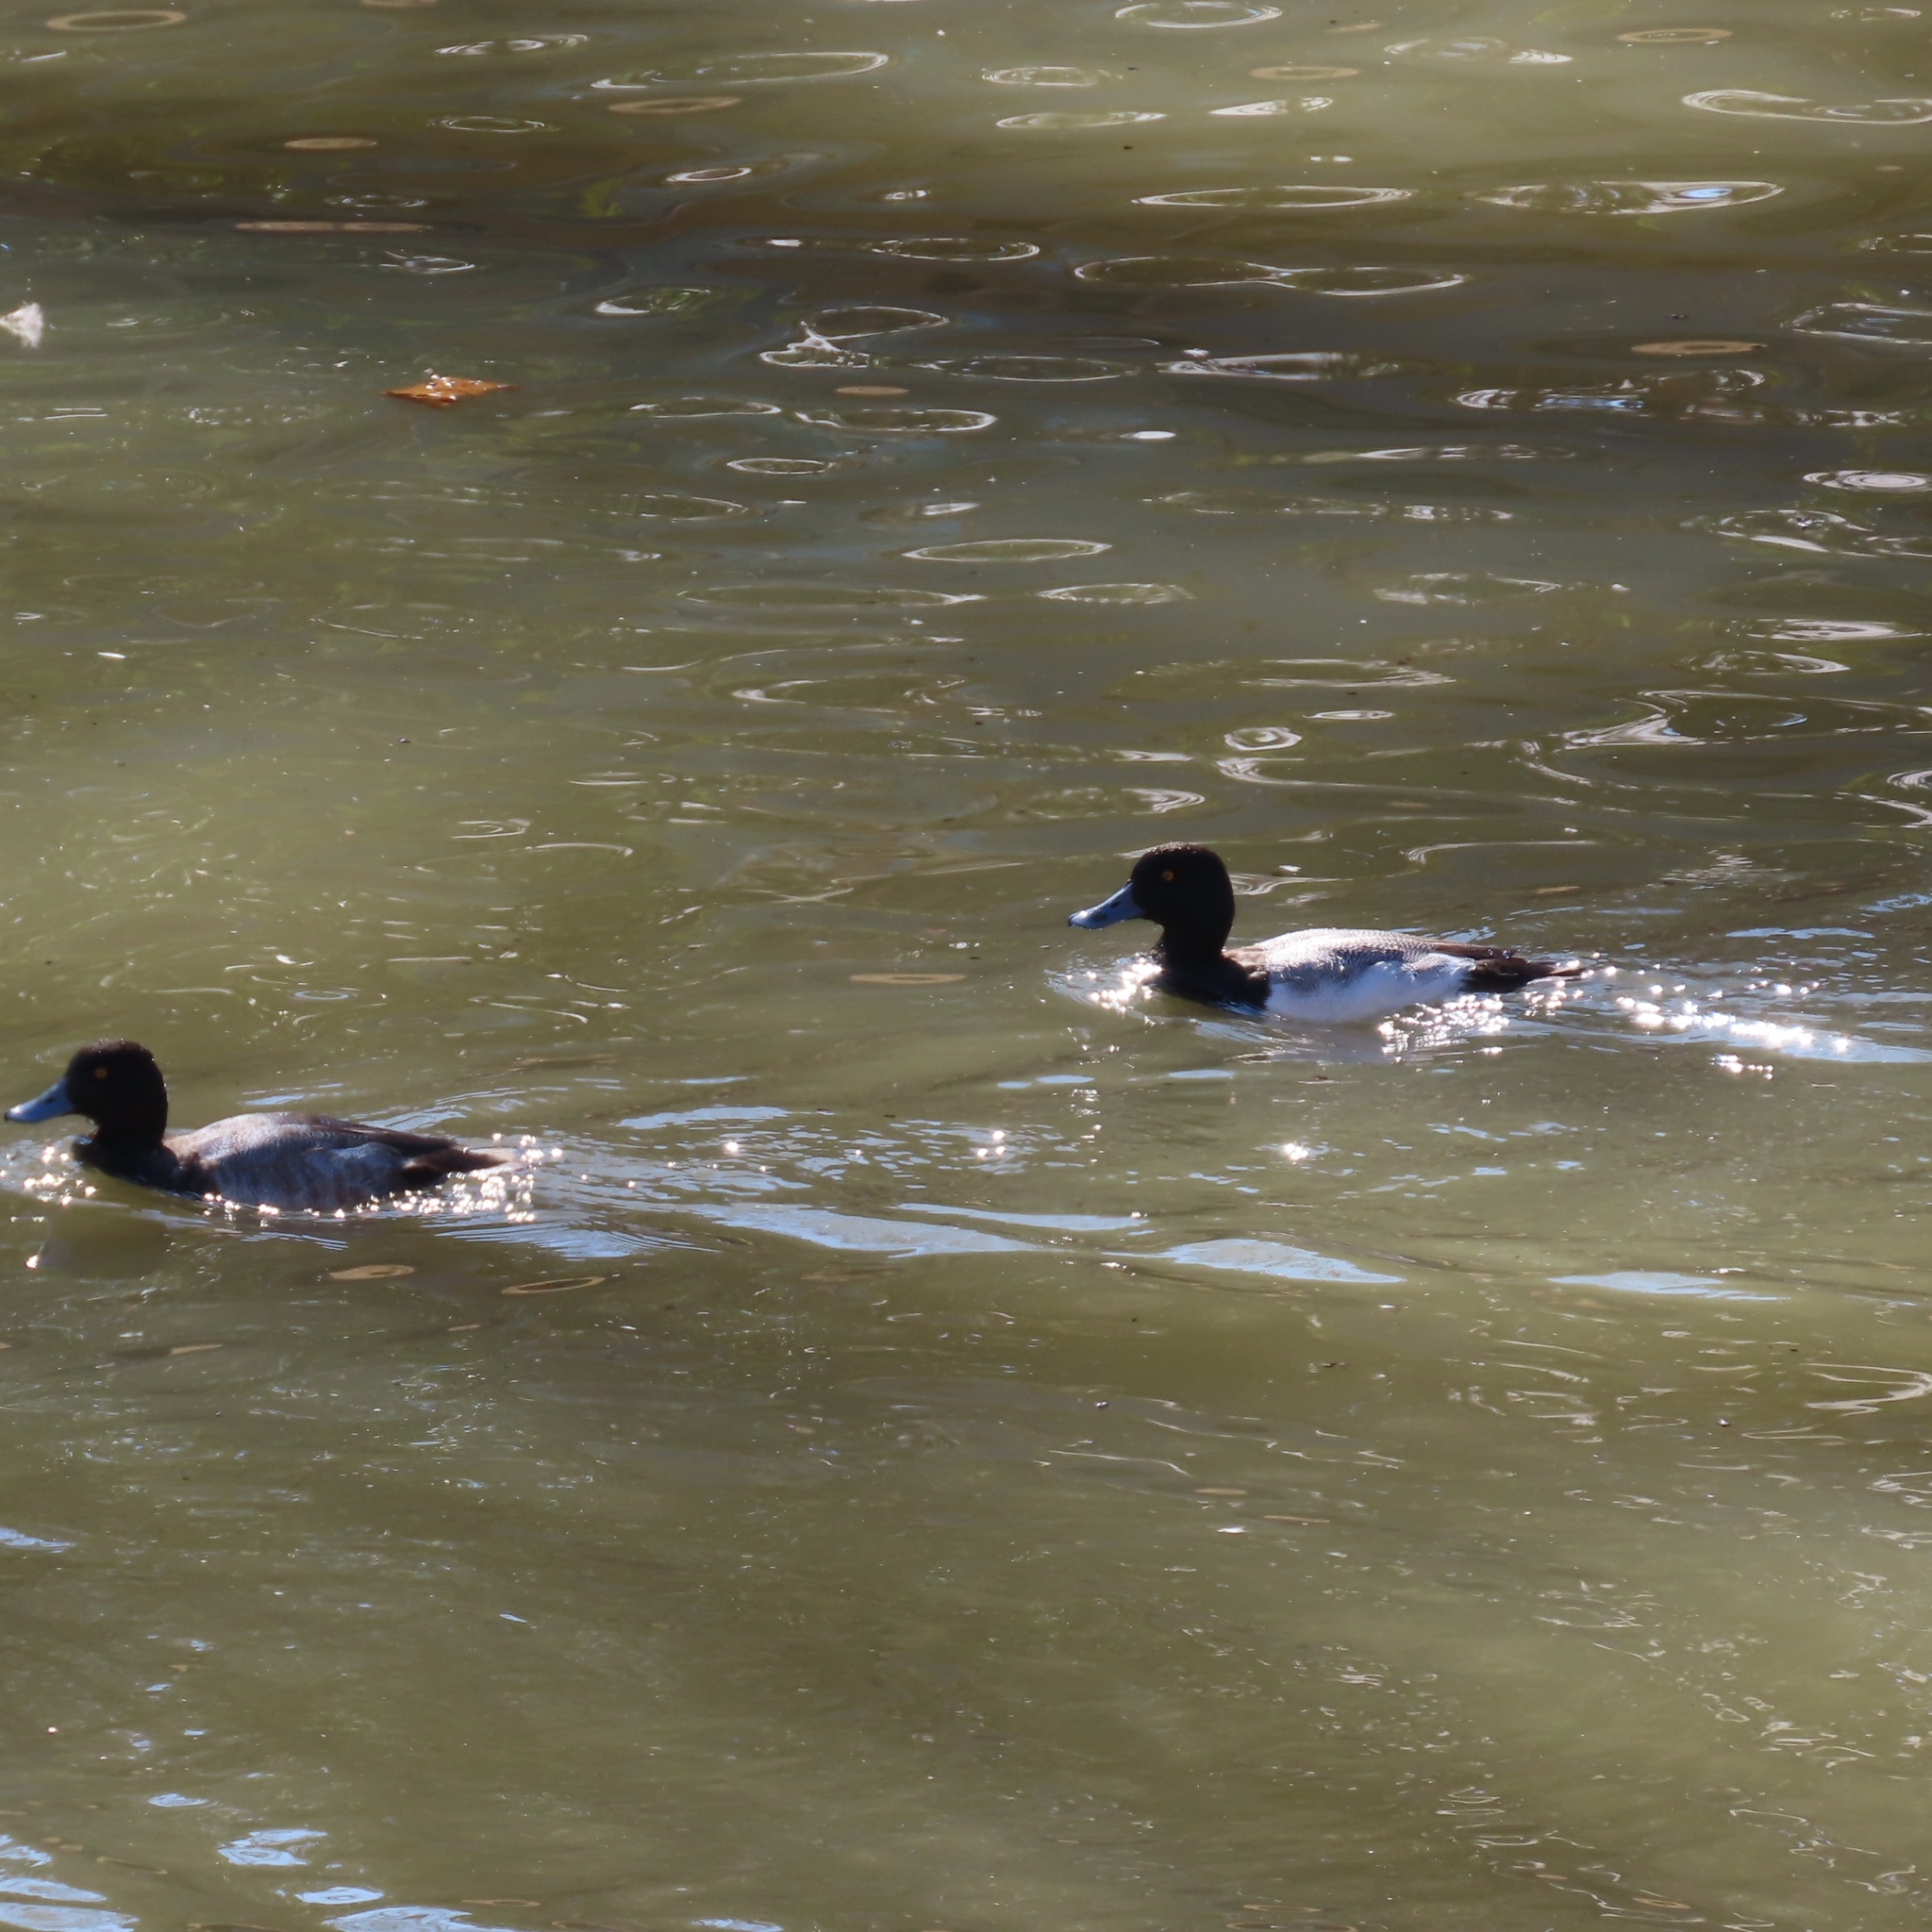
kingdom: Animalia
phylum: Chordata
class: Aves
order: Anseriformes
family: Anatidae
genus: Aythya
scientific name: Aythya affinis
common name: Lesser scaup
